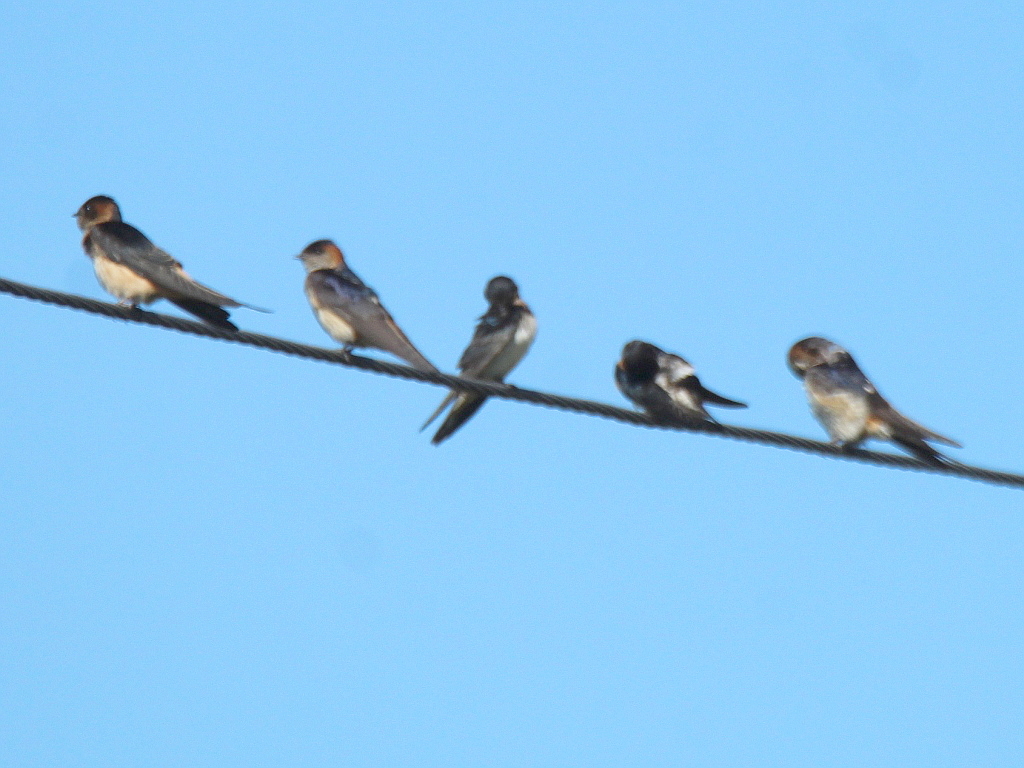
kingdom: Animalia
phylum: Chordata
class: Aves
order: Passeriformes
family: Hirundinidae
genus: Cecropis
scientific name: Cecropis daurica
